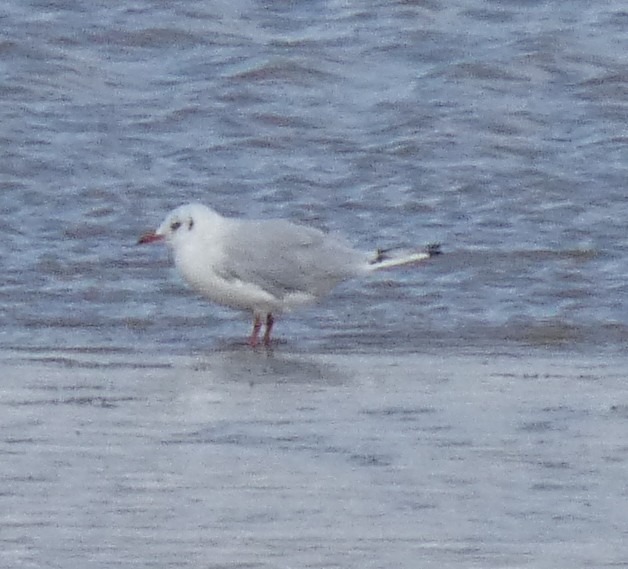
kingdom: Animalia
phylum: Chordata
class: Aves
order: Charadriiformes
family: Laridae
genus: Chroicocephalus
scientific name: Chroicocephalus ridibundus
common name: Black-headed gull
